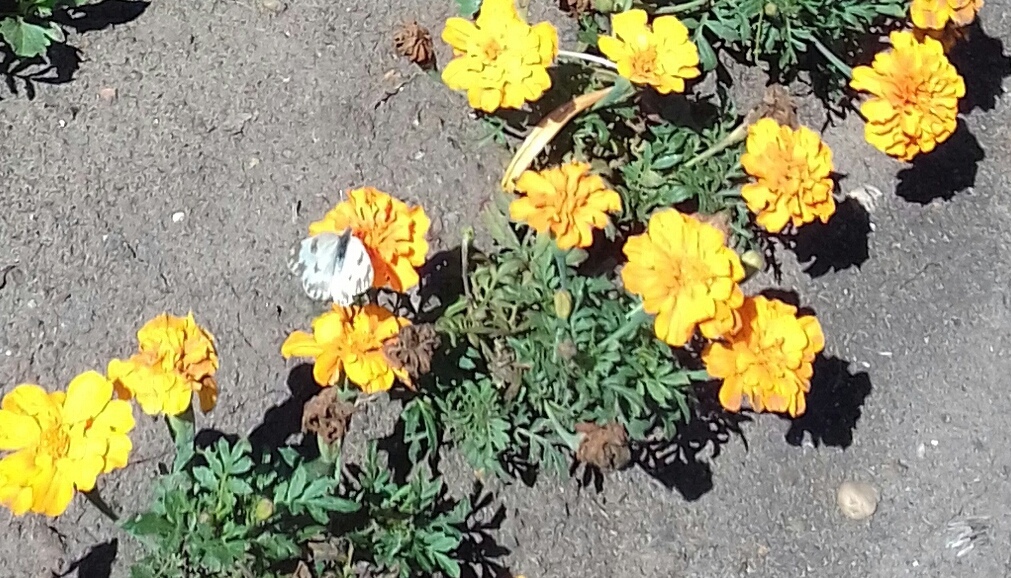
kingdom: Animalia
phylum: Arthropoda
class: Insecta
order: Lepidoptera
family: Pieridae
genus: Pontia
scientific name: Pontia edusa
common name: Eastern bath white
